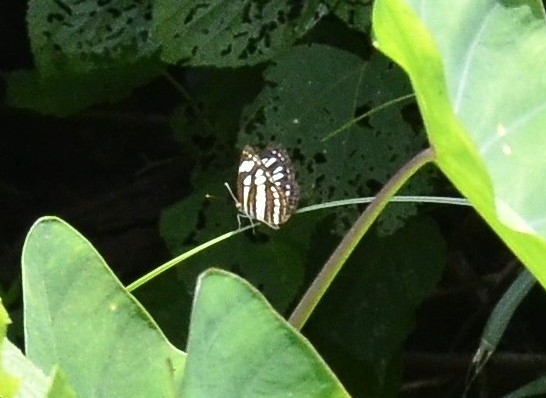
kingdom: Animalia
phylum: Arthropoda
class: Insecta
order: Lepidoptera
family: Nymphalidae
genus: Neptis
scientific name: Neptis hylas
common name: Common sailer
